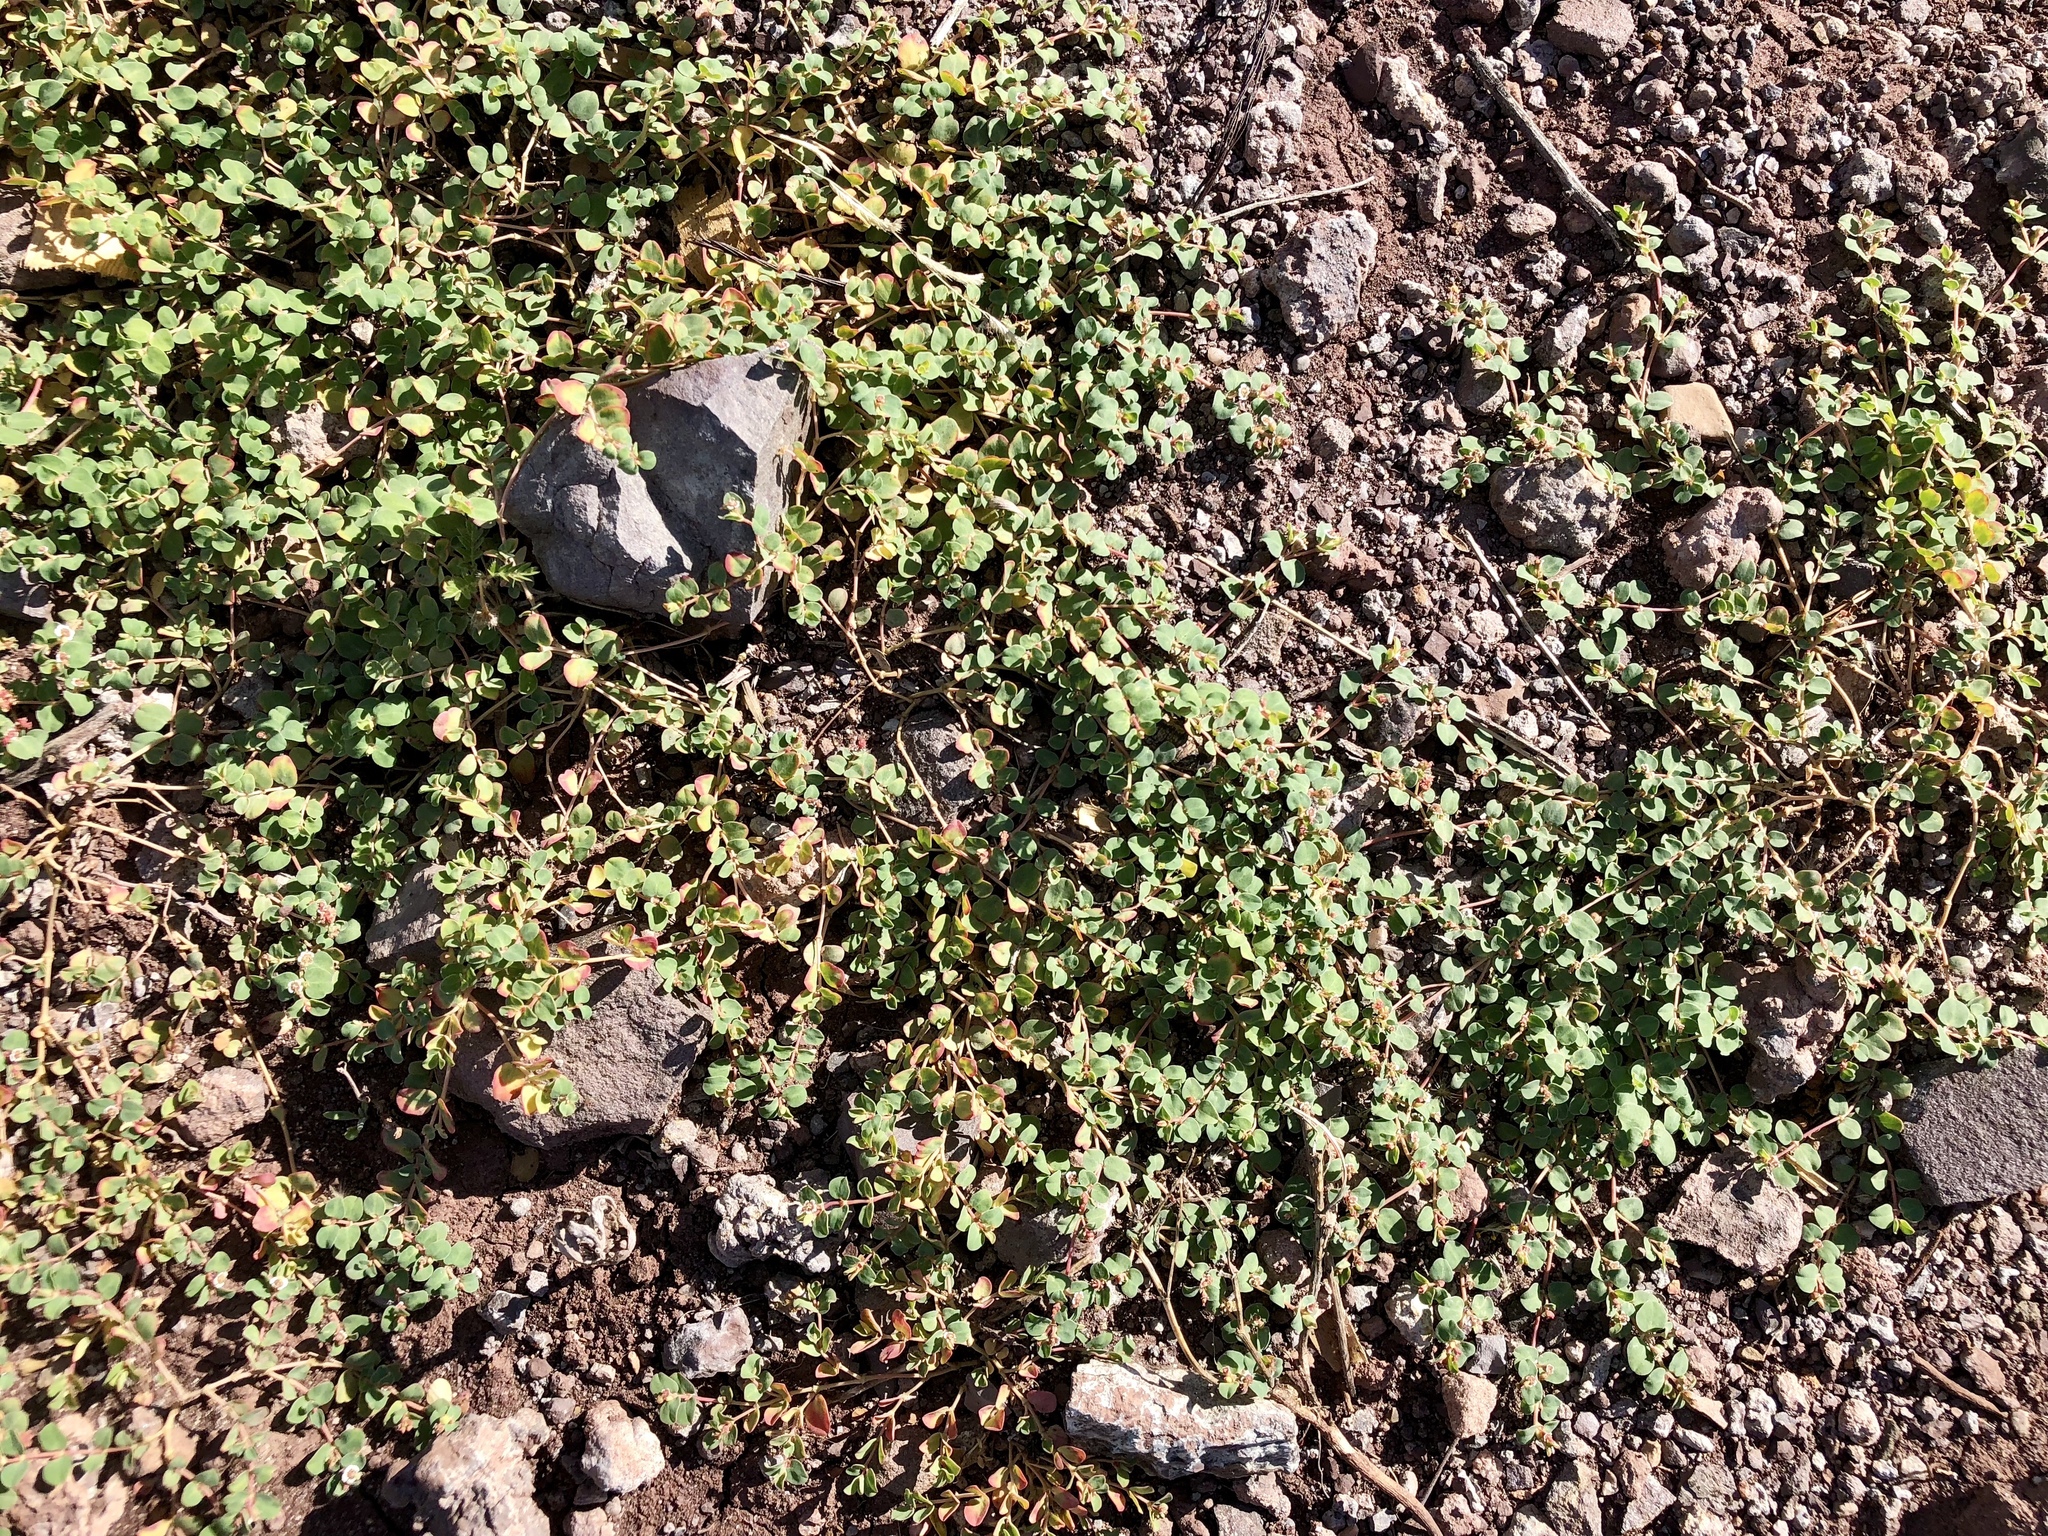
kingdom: Plantae
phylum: Tracheophyta
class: Magnoliopsida
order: Malpighiales
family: Euphorbiaceae
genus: Euphorbia
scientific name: Euphorbia albomarginata
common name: Whitemargin sandmat
